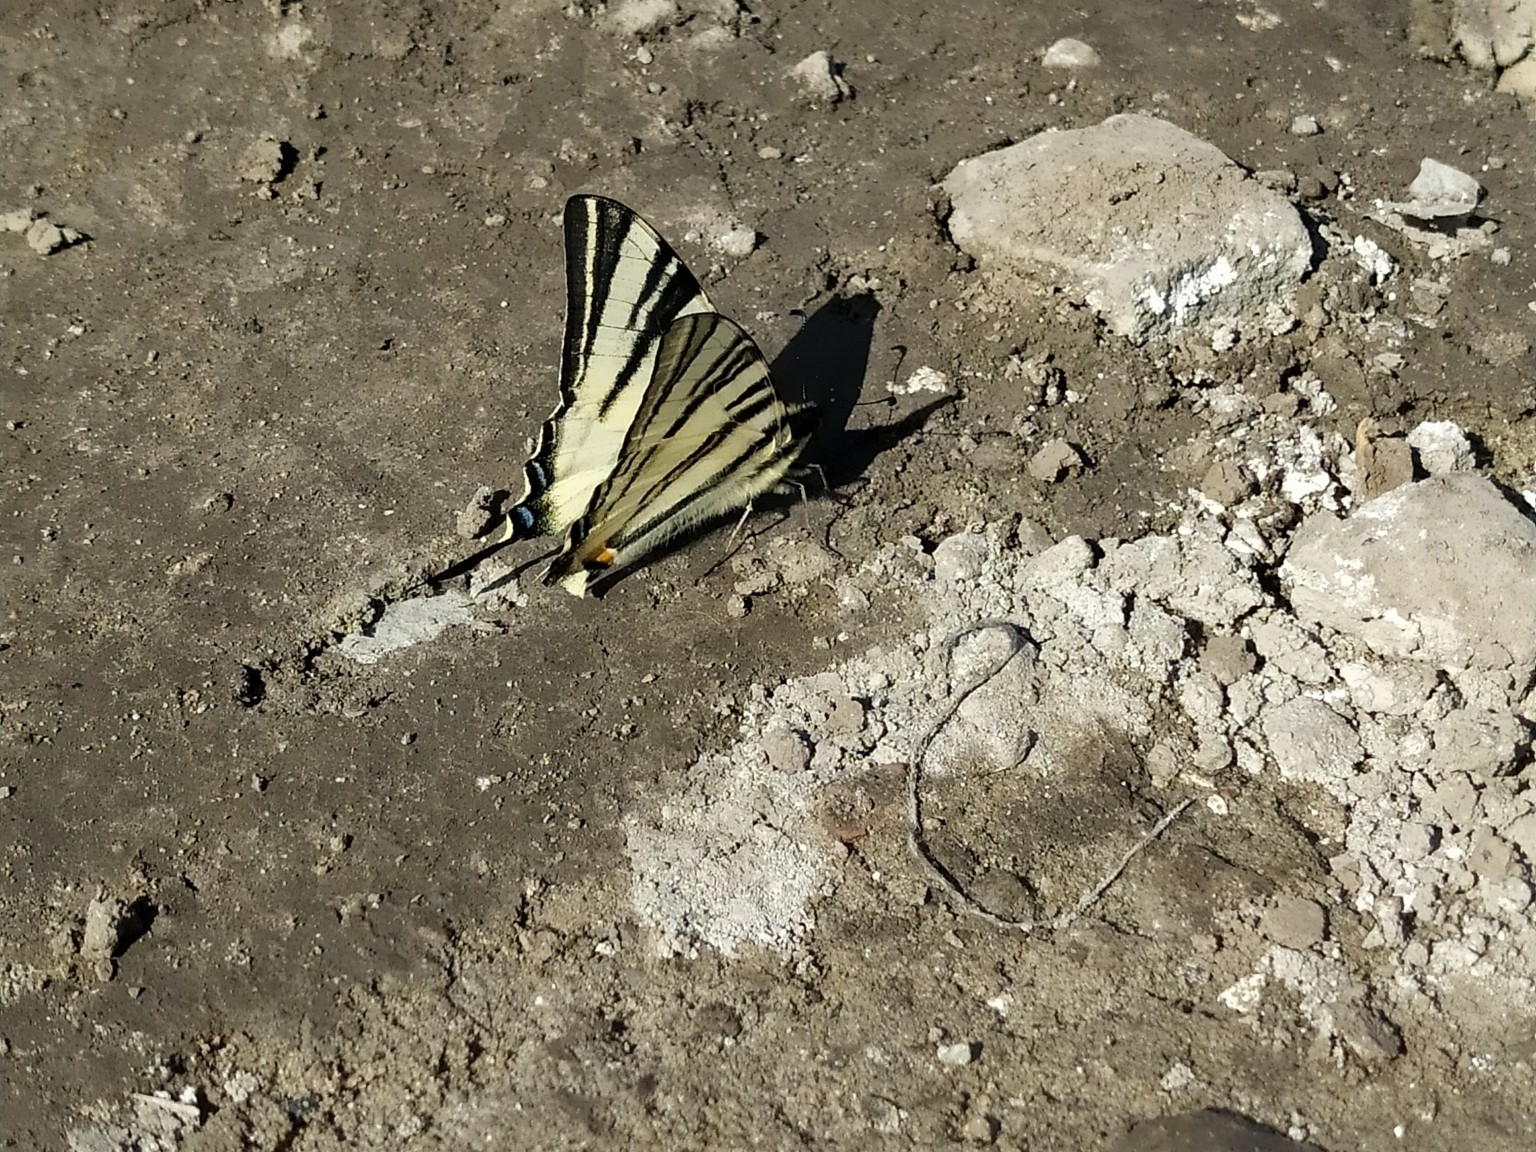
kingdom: Animalia
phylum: Arthropoda
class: Insecta
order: Lepidoptera
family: Papilionidae
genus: Iphiclides
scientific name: Iphiclides podalirius
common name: Scarce swallowtail
